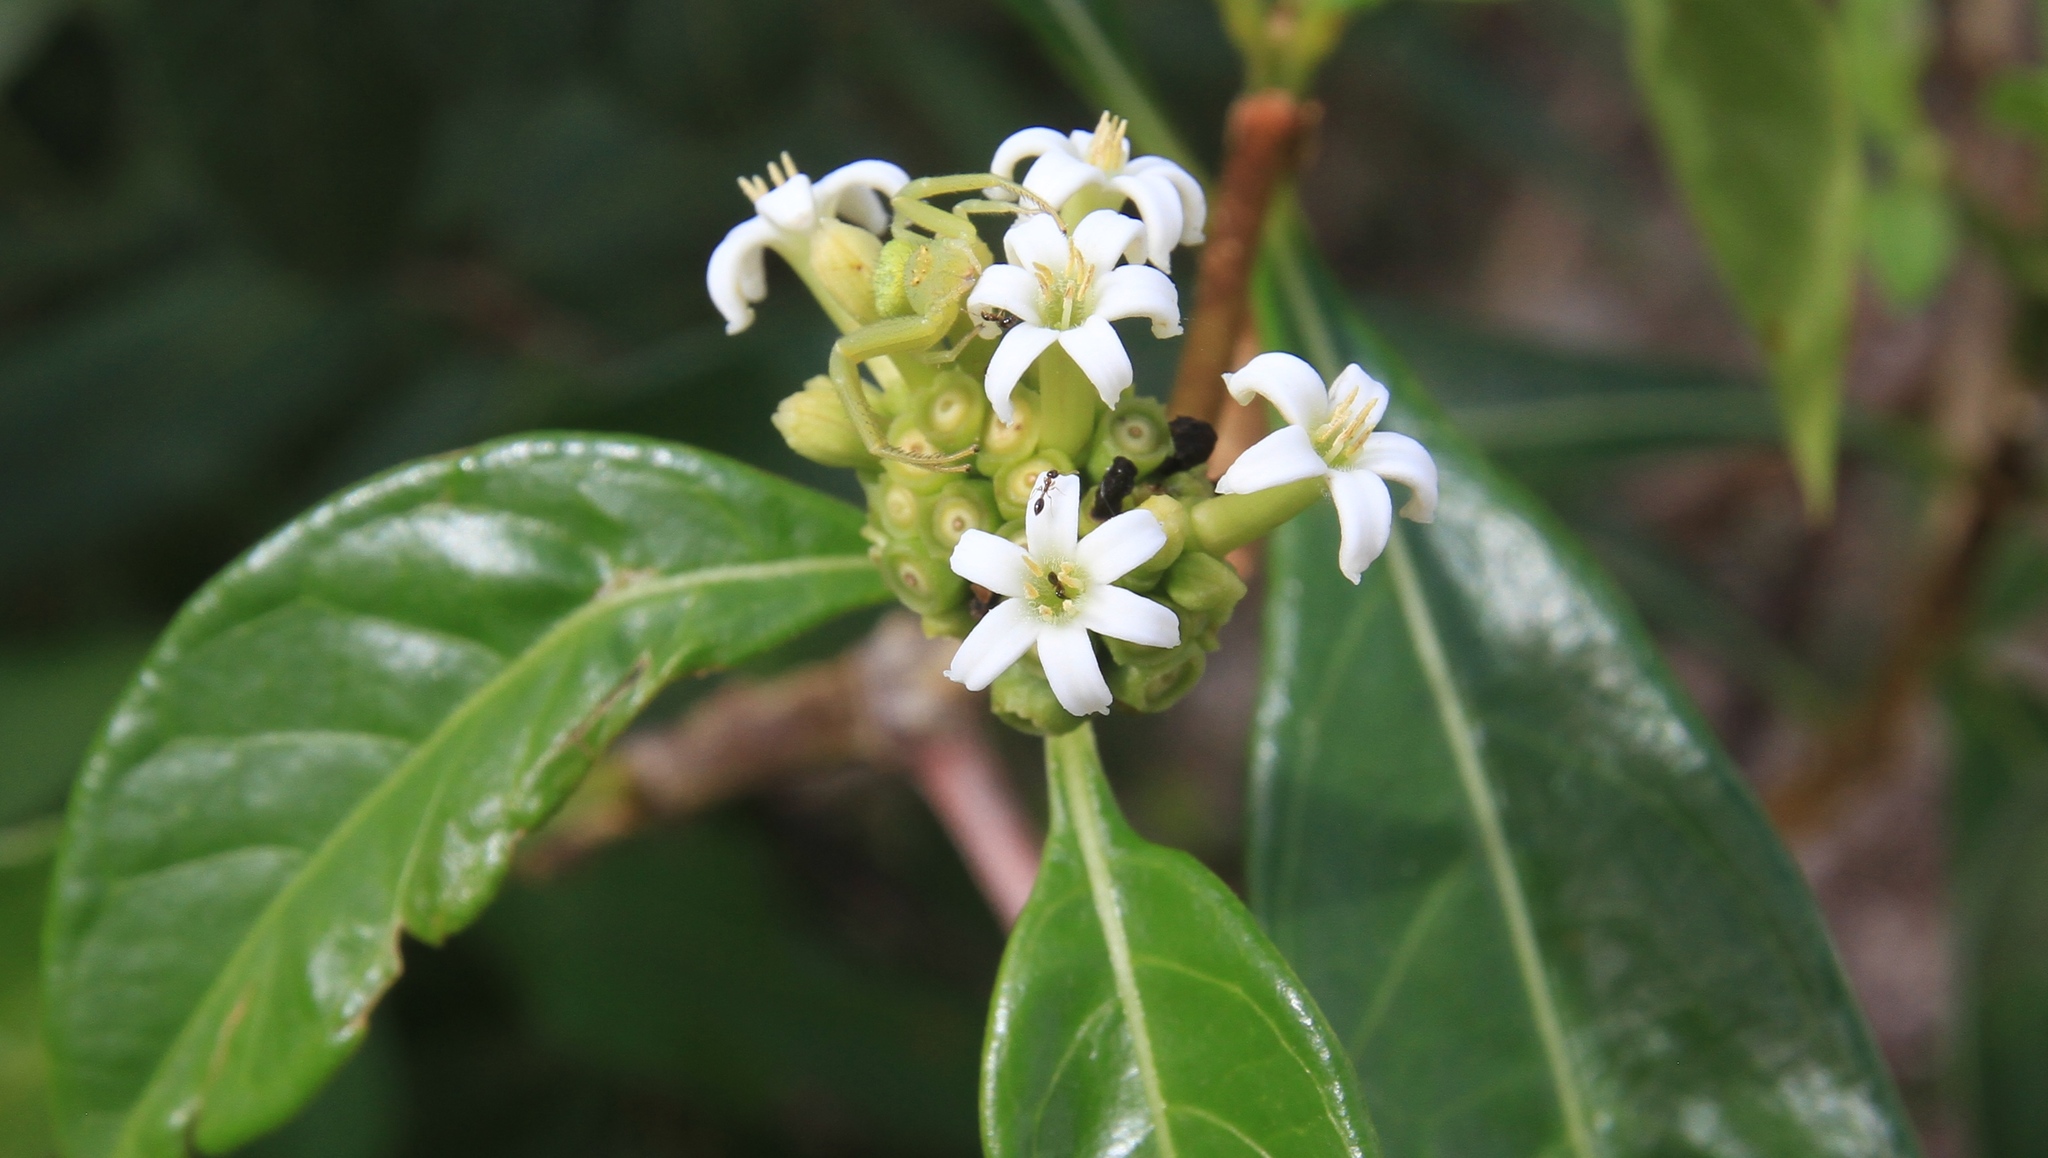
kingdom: Plantae
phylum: Tracheophyta
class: Magnoliopsida
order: Gentianales
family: Rubiaceae
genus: Morinda
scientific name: Morinda royoc
